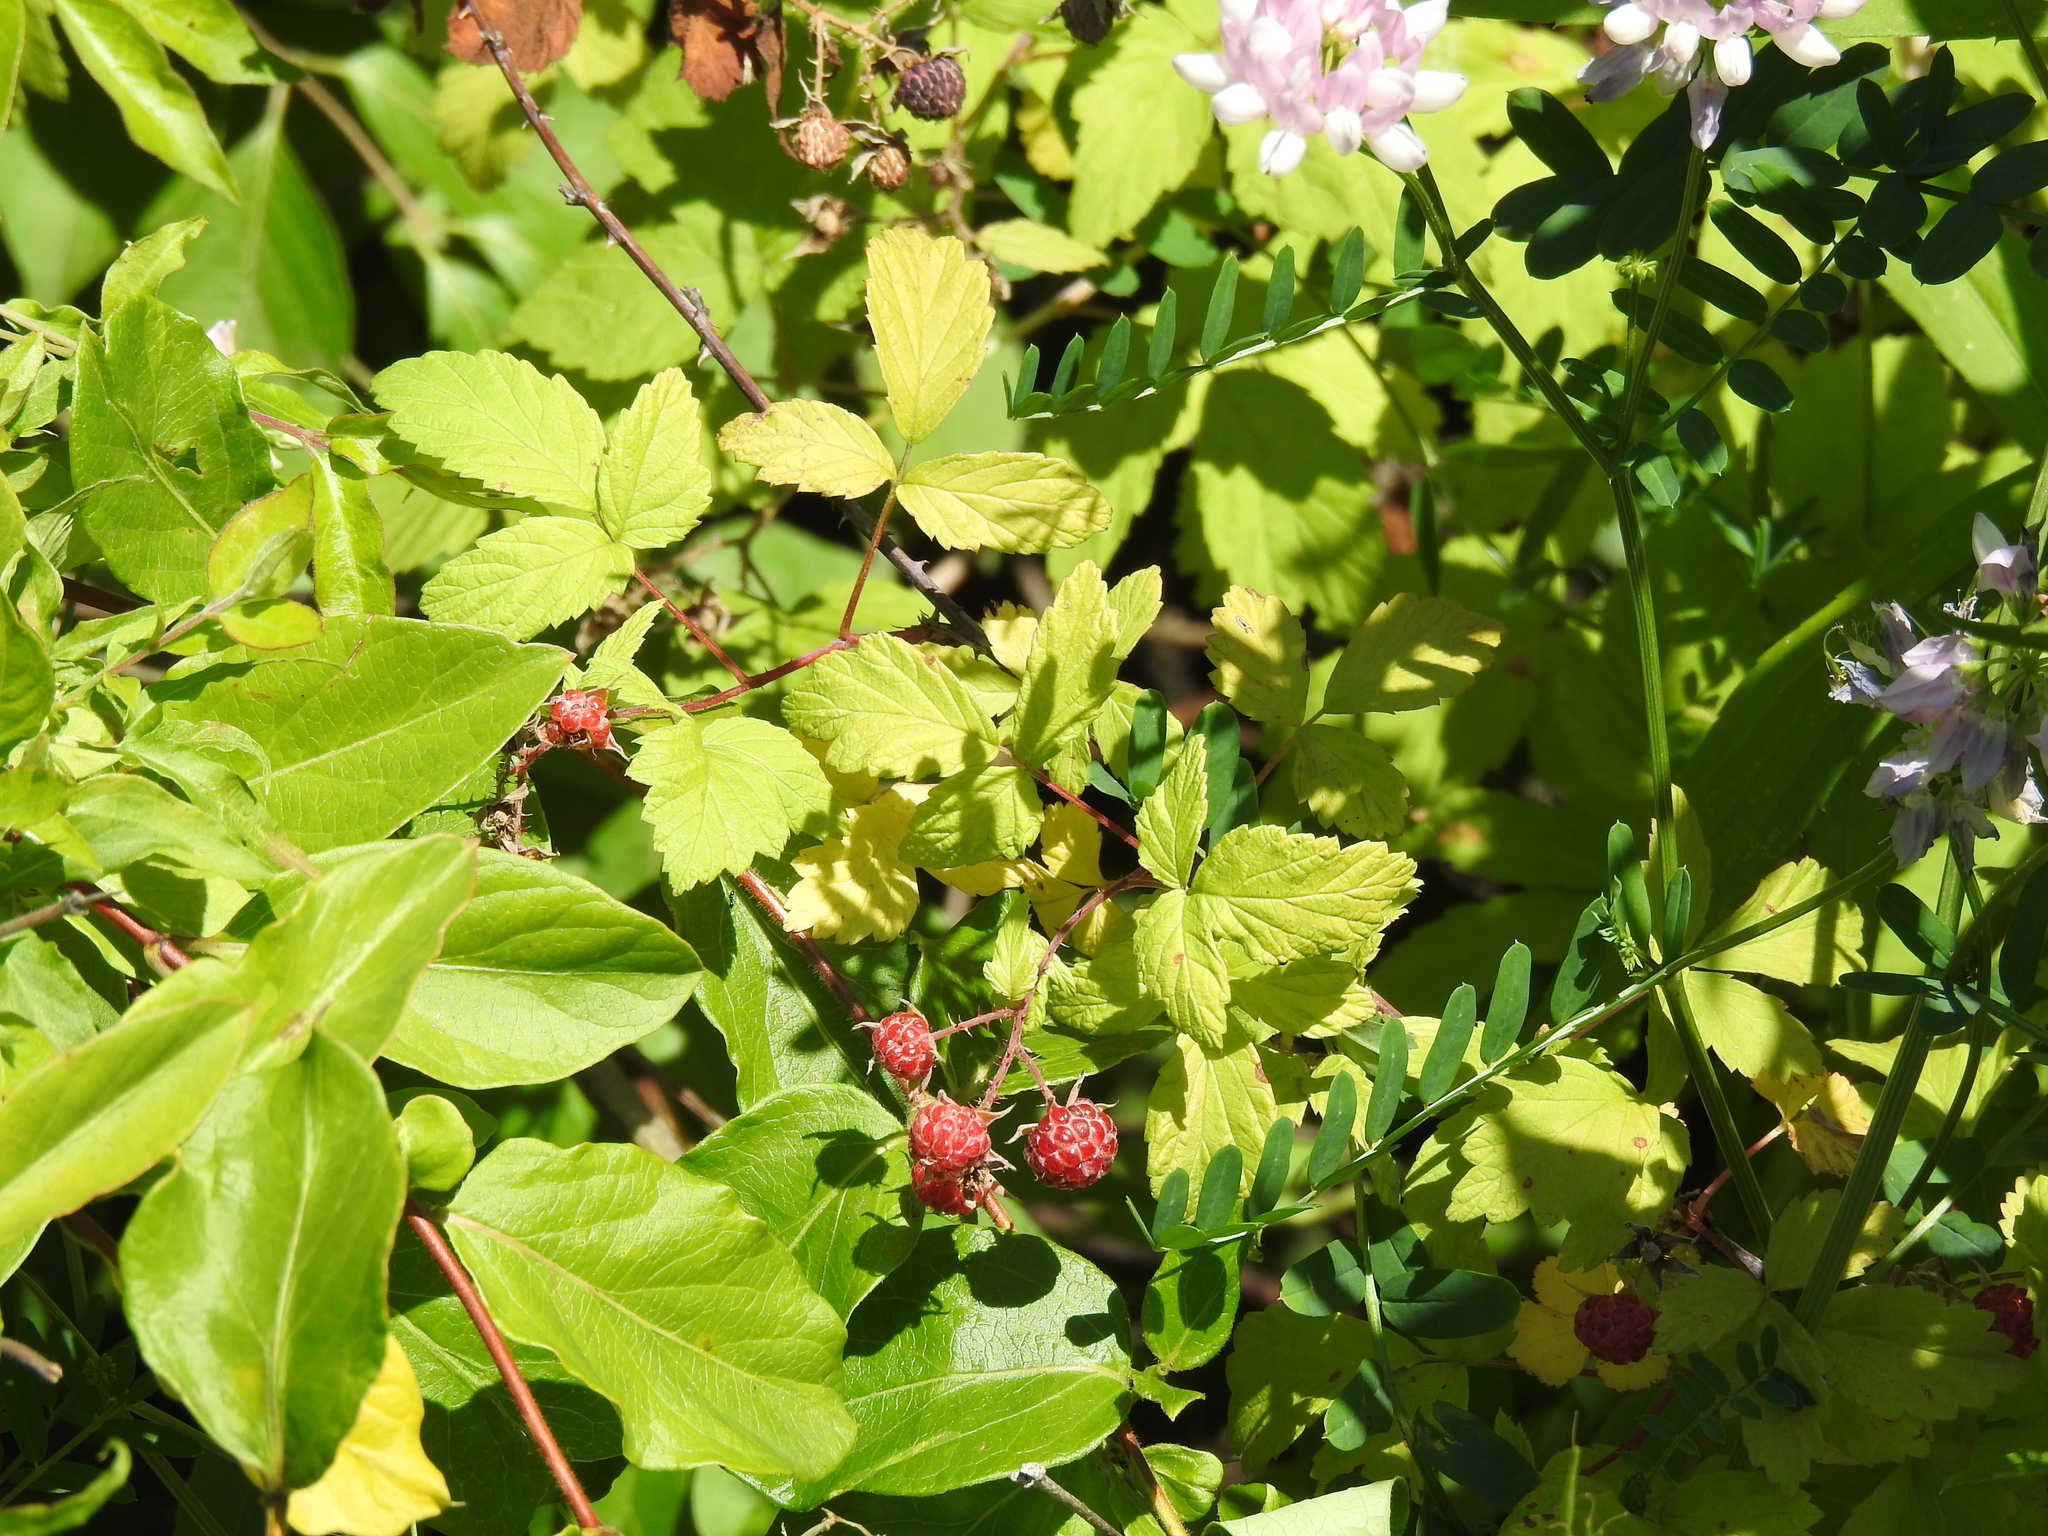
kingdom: Plantae
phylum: Tracheophyta
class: Magnoliopsida
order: Rosales
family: Rosaceae
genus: Rubus
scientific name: Rubus occidentalis
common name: Black raspberry
